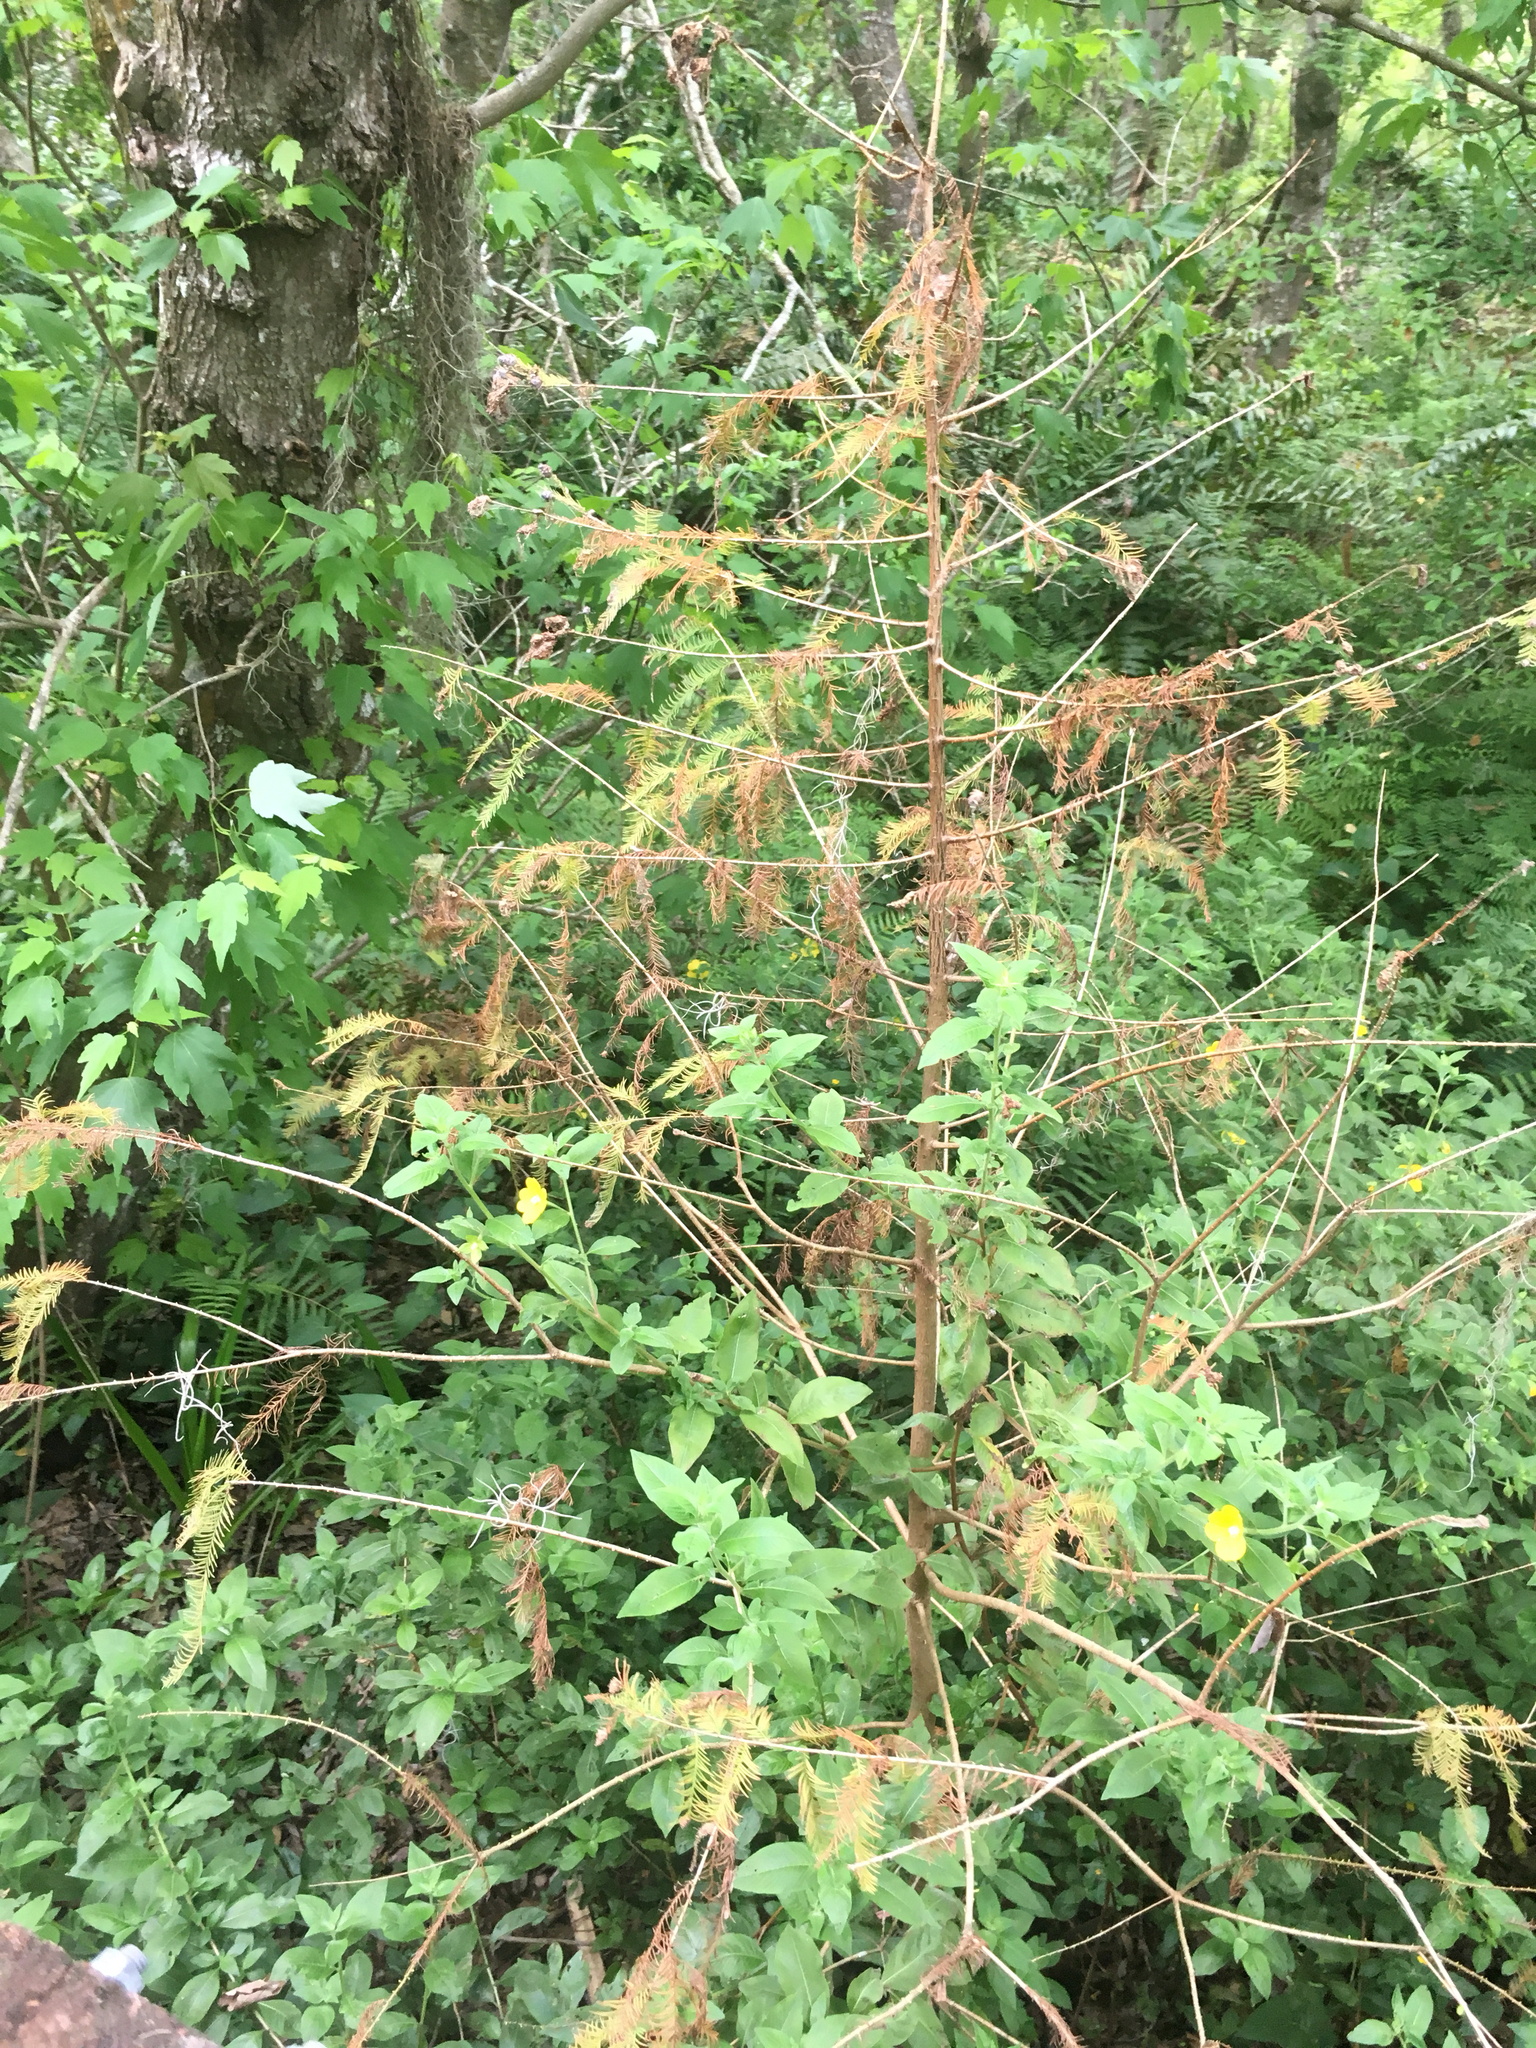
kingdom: Plantae
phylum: Tracheophyta
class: Pinopsida
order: Pinales
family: Cupressaceae
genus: Taxodium
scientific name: Taxodium distichum
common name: Bald cypress
